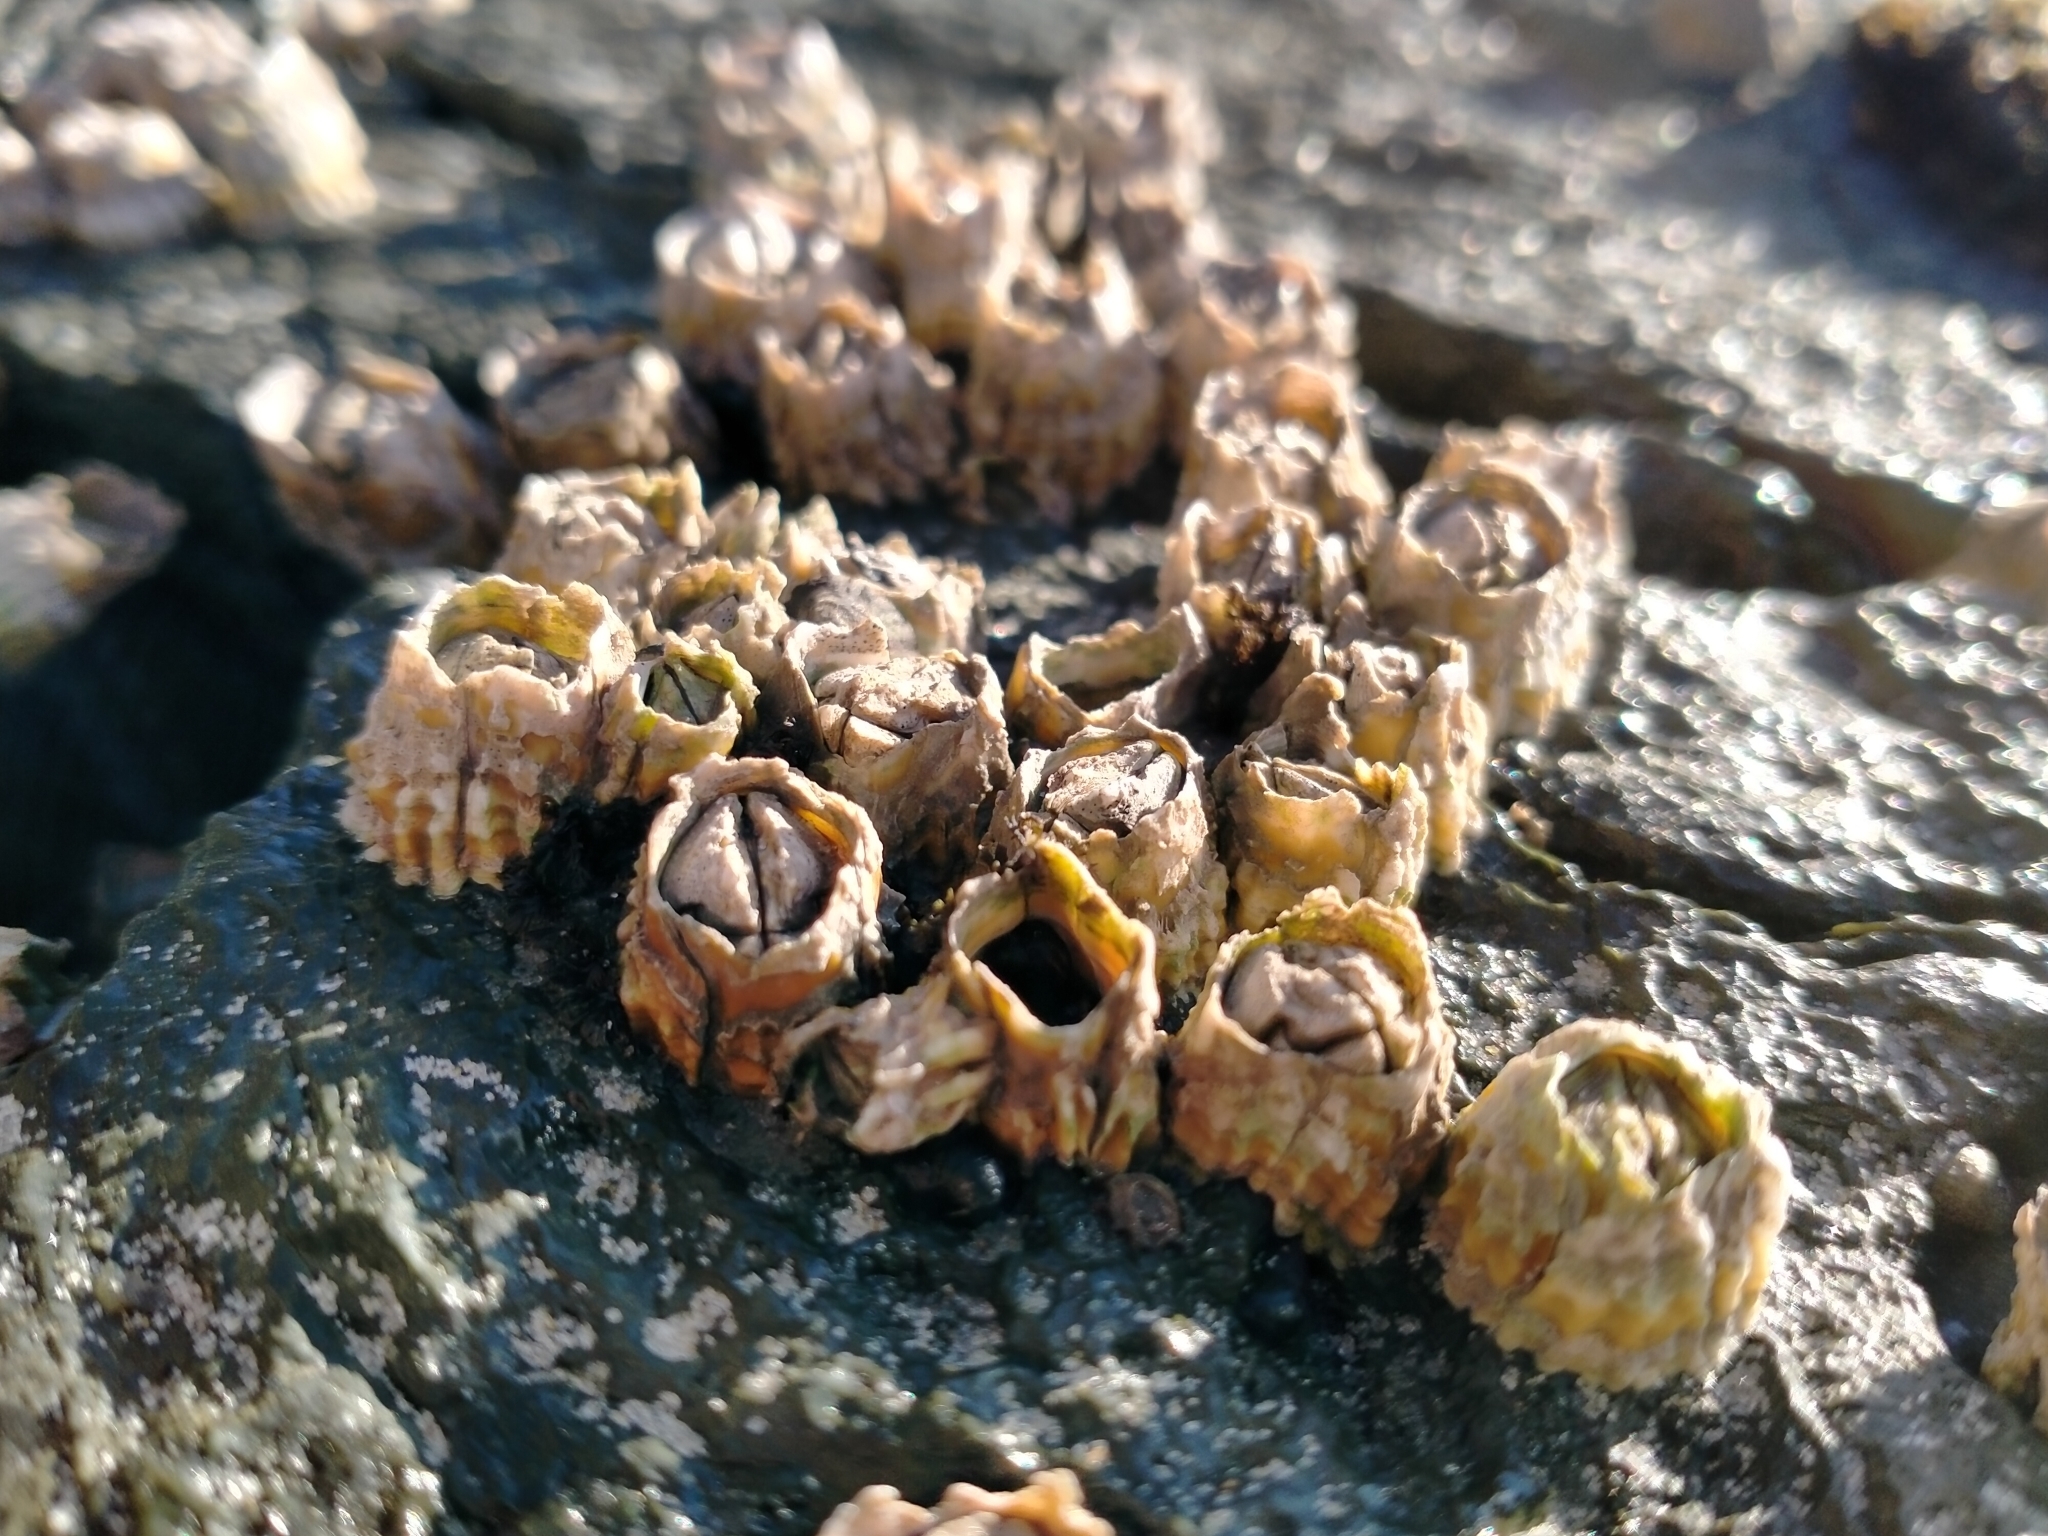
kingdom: Animalia
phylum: Arthropoda
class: Maxillopoda
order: Sessilia
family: Tetraclitidae
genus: Epopella
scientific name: Epopella plicata
